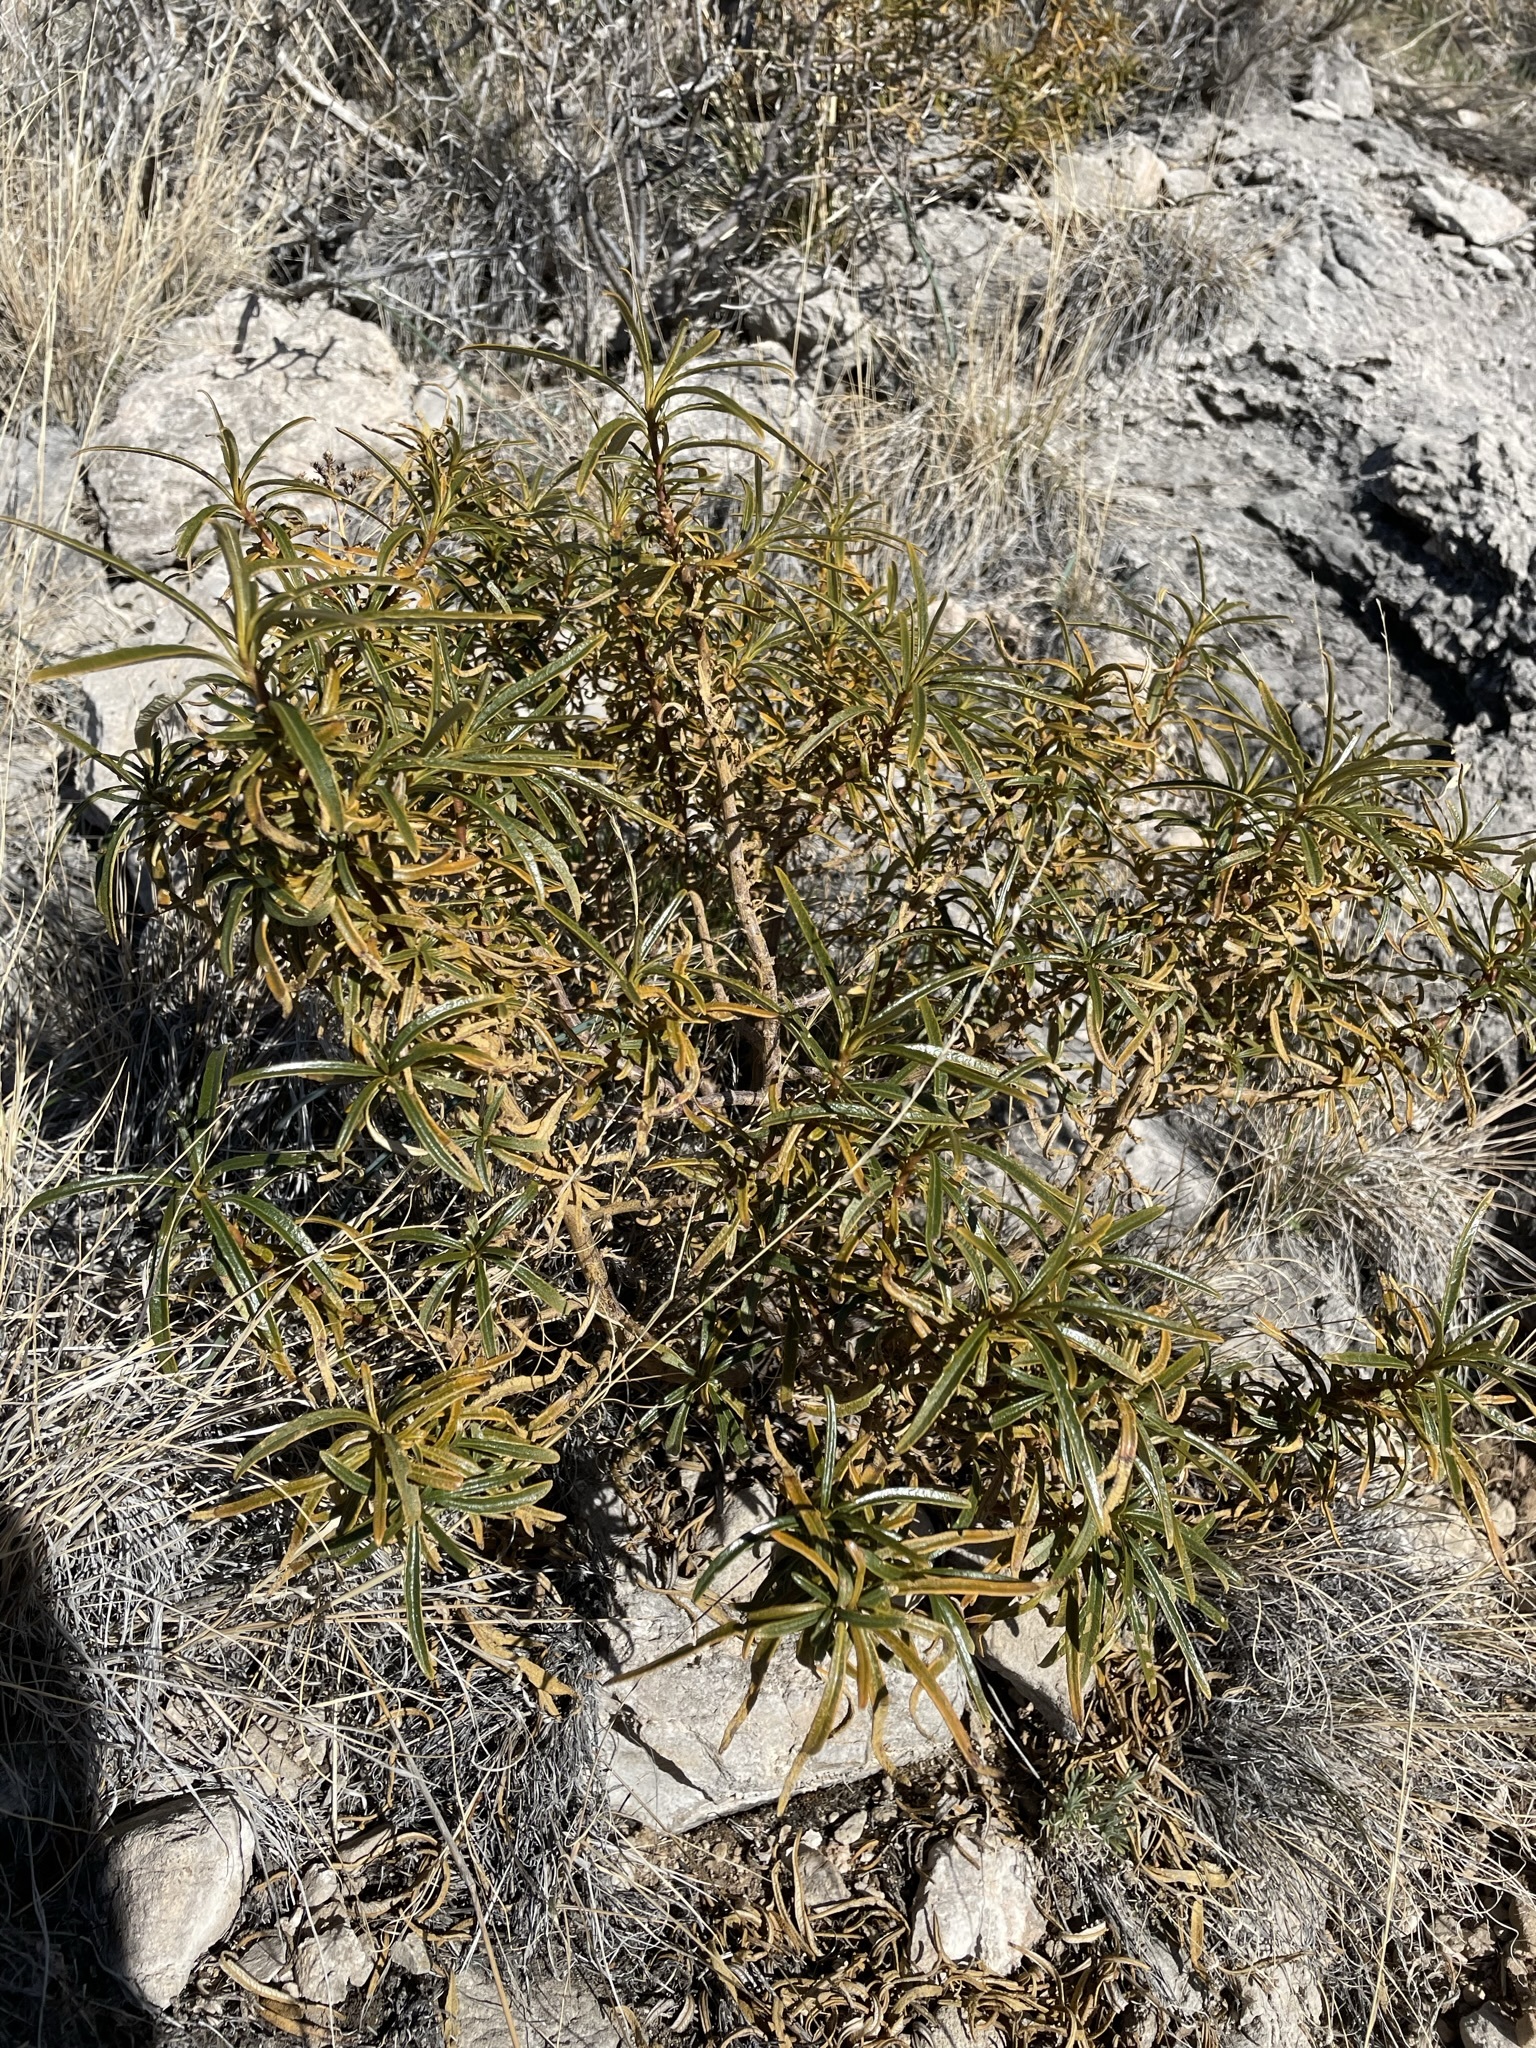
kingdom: Plantae
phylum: Tracheophyta
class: Magnoliopsida
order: Boraginales
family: Namaceae
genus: Eriodictyon
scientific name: Eriodictyon angustifolium
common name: Narrow-leaf yerba santa
